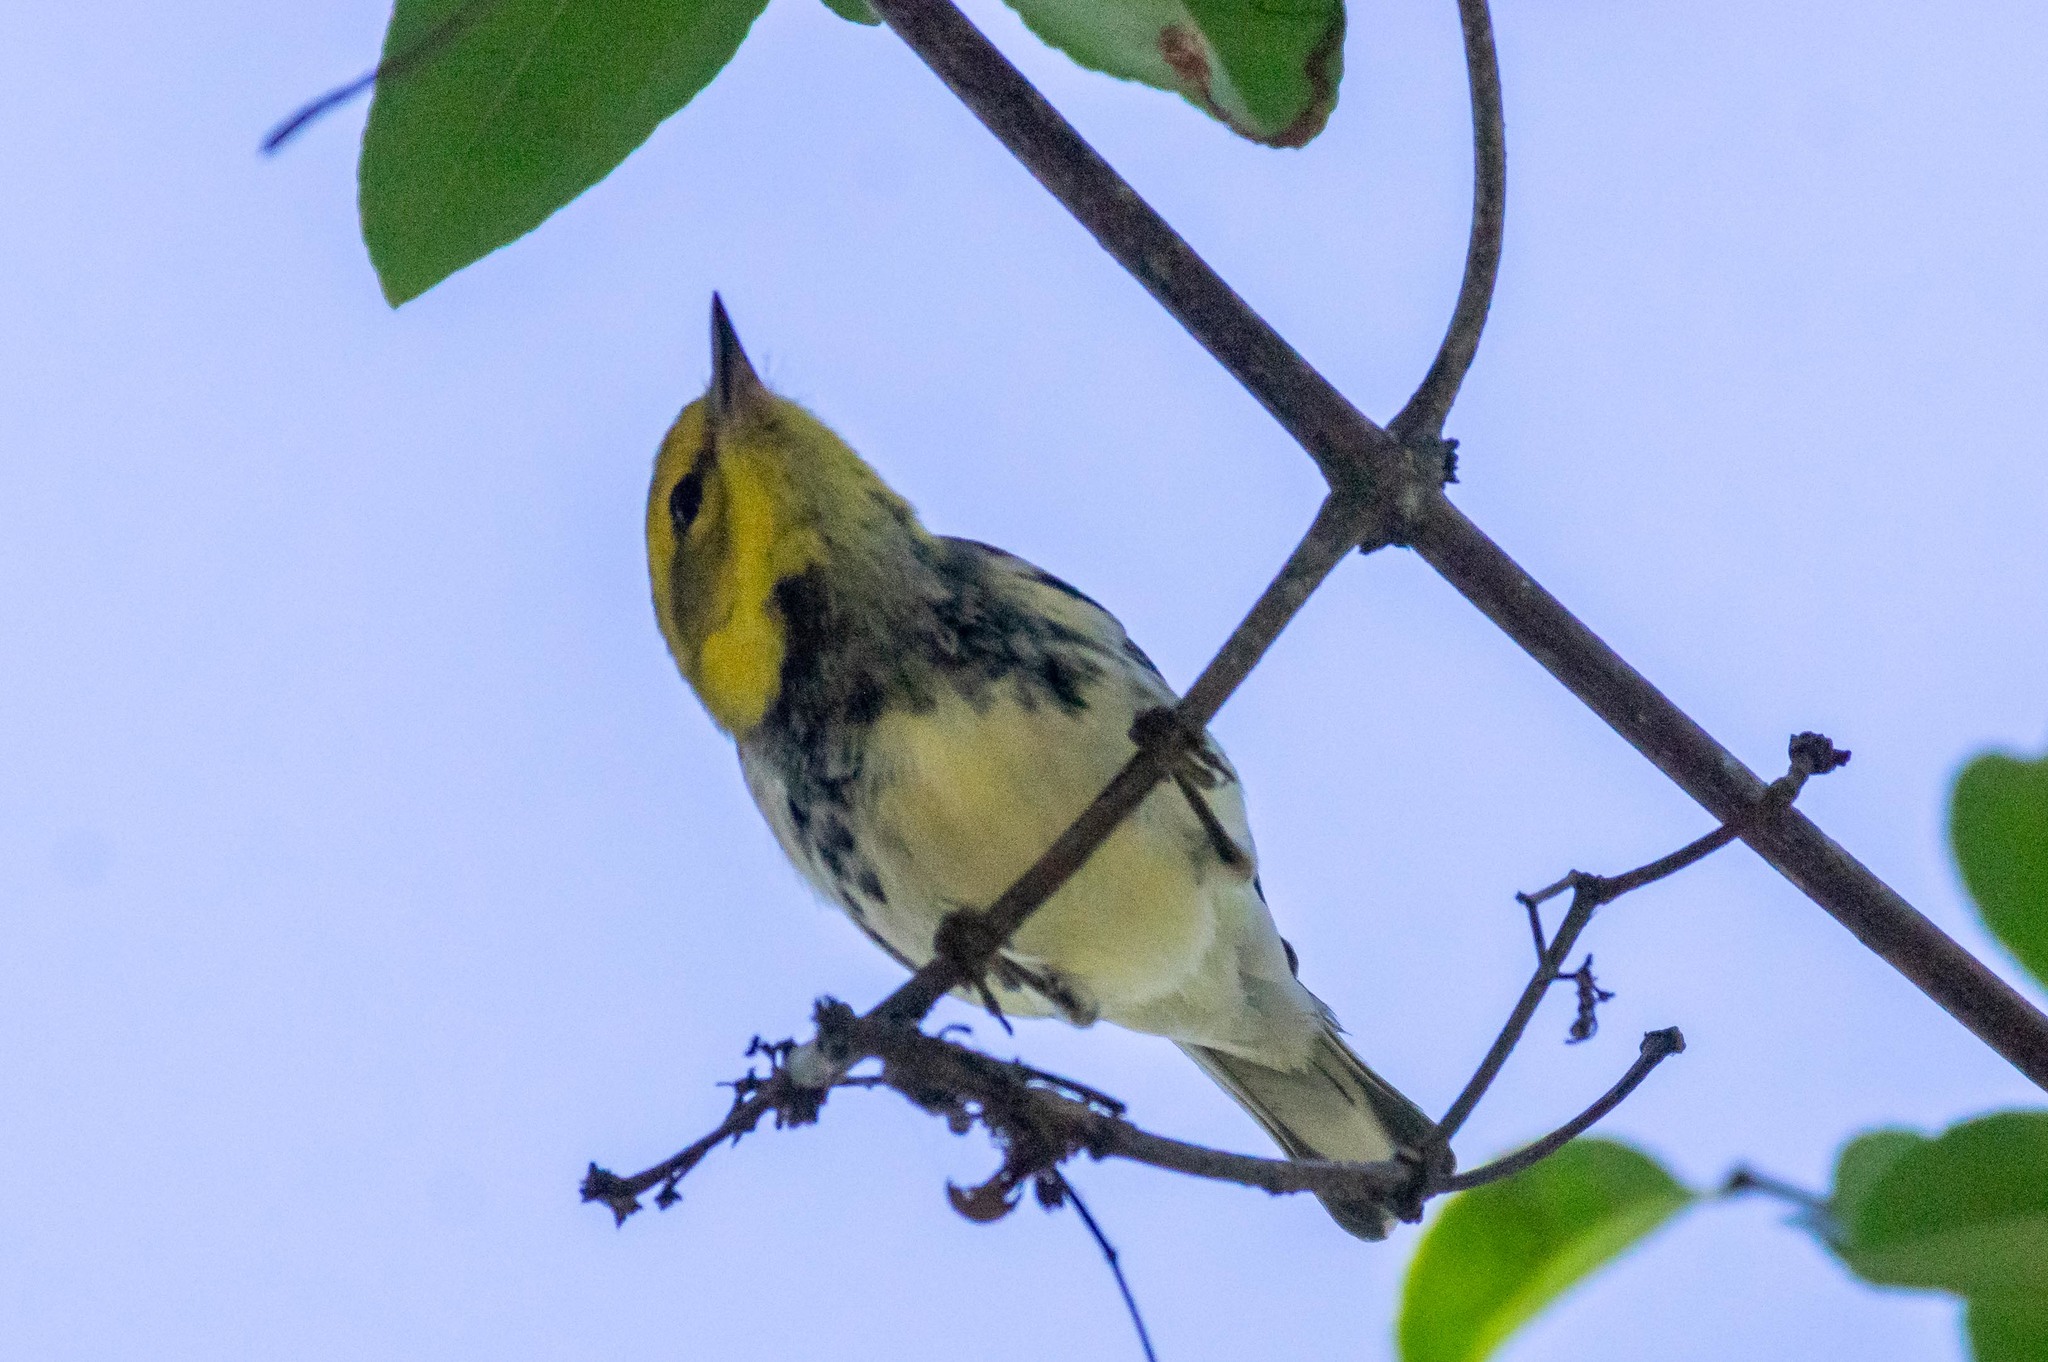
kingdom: Animalia
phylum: Chordata
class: Aves
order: Passeriformes
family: Parulidae
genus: Setophaga
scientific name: Setophaga virens
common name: Black-throated green warbler
